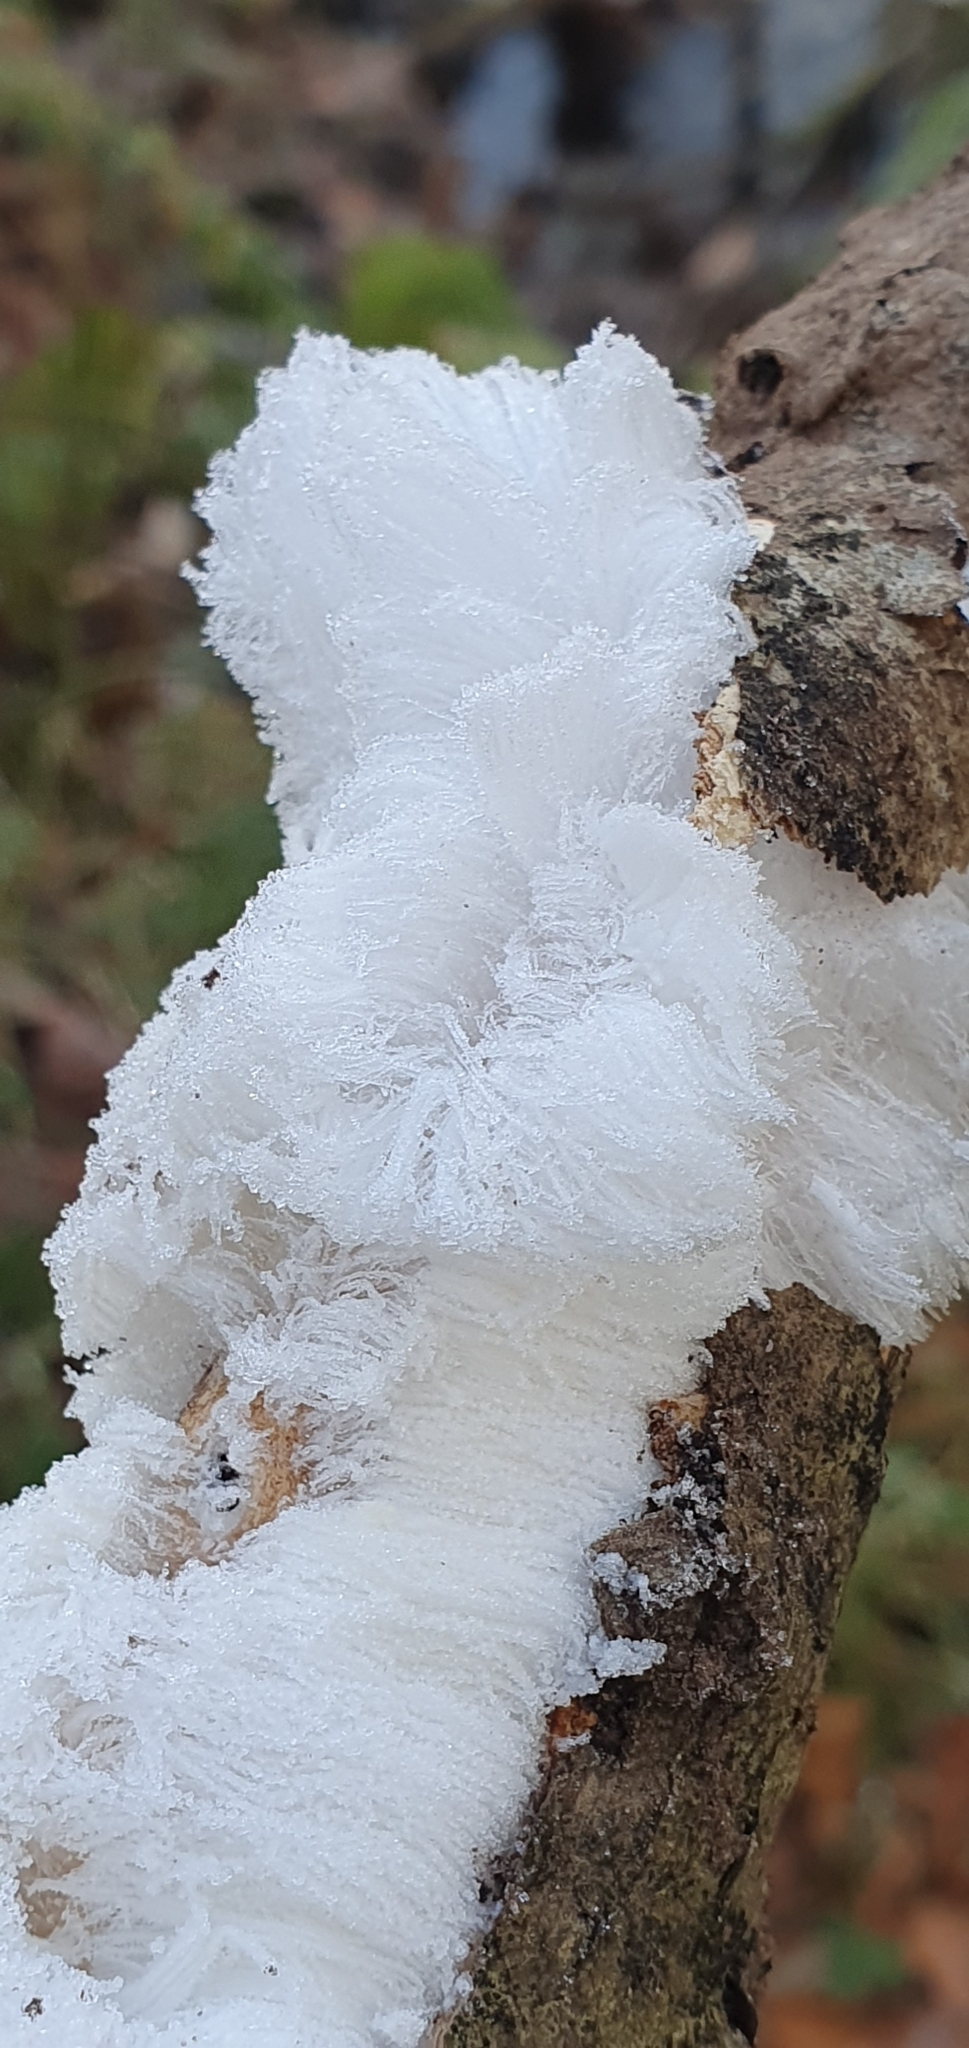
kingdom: Fungi
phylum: Basidiomycota
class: Agaricomycetes
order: Auriculariales
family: Auriculariaceae
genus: Exidiopsis
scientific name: Exidiopsis effusa
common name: Hair ice crust
